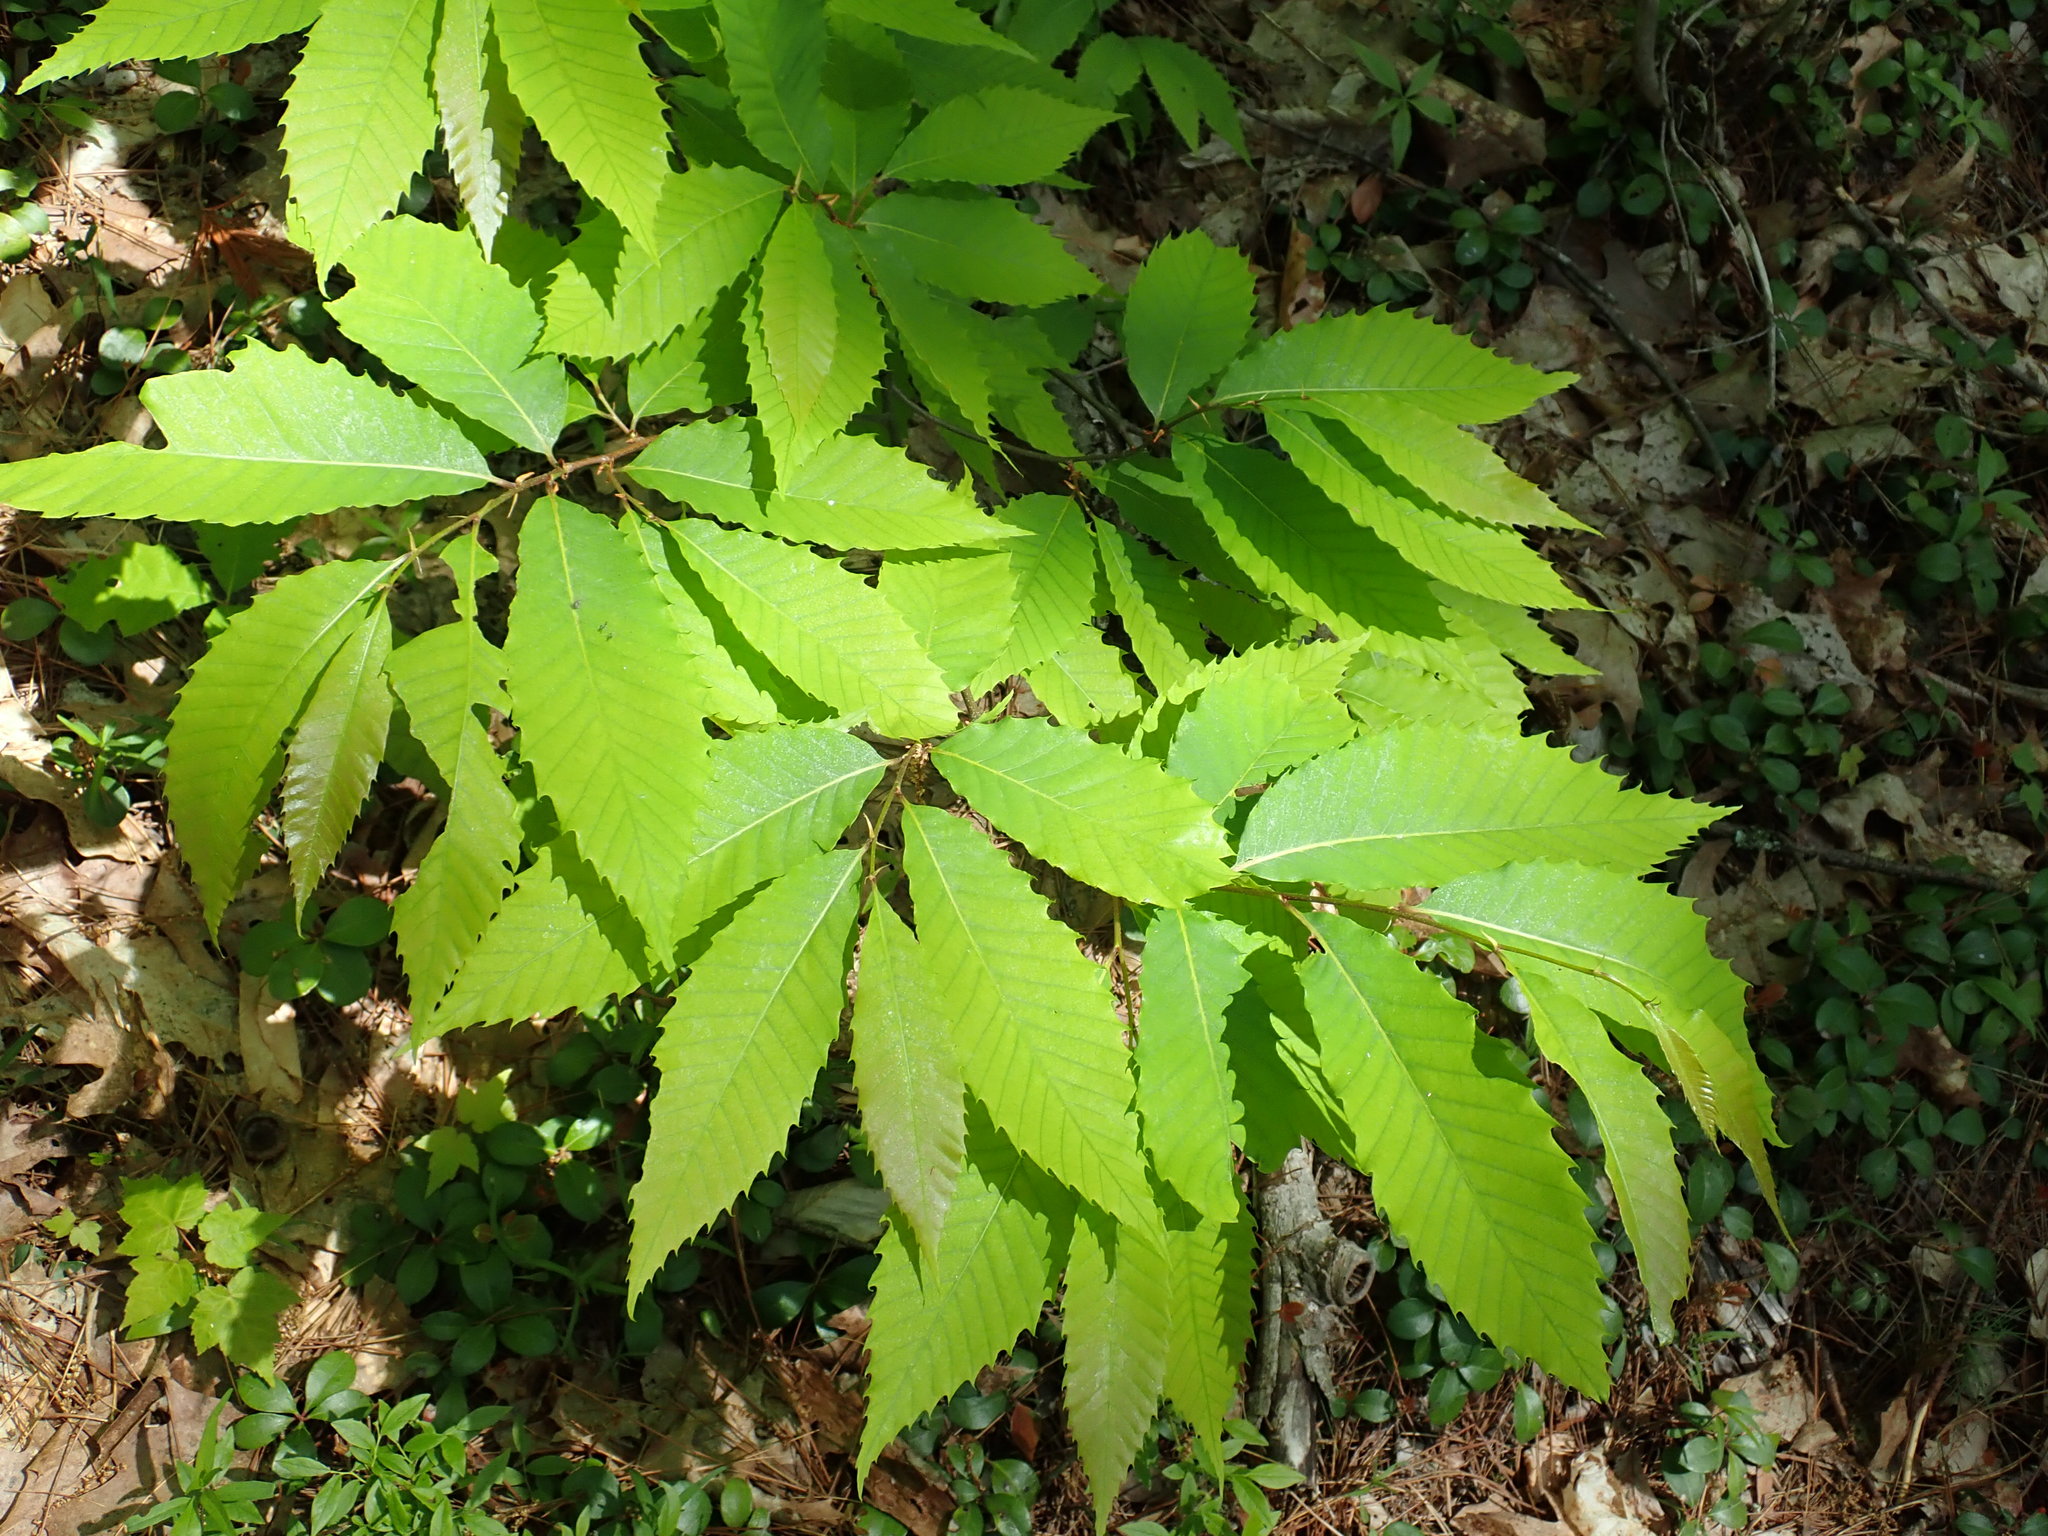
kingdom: Plantae
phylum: Tracheophyta
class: Magnoliopsida
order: Fagales
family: Fagaceae
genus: Castanea
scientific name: Castanea dentata
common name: American chestnut
